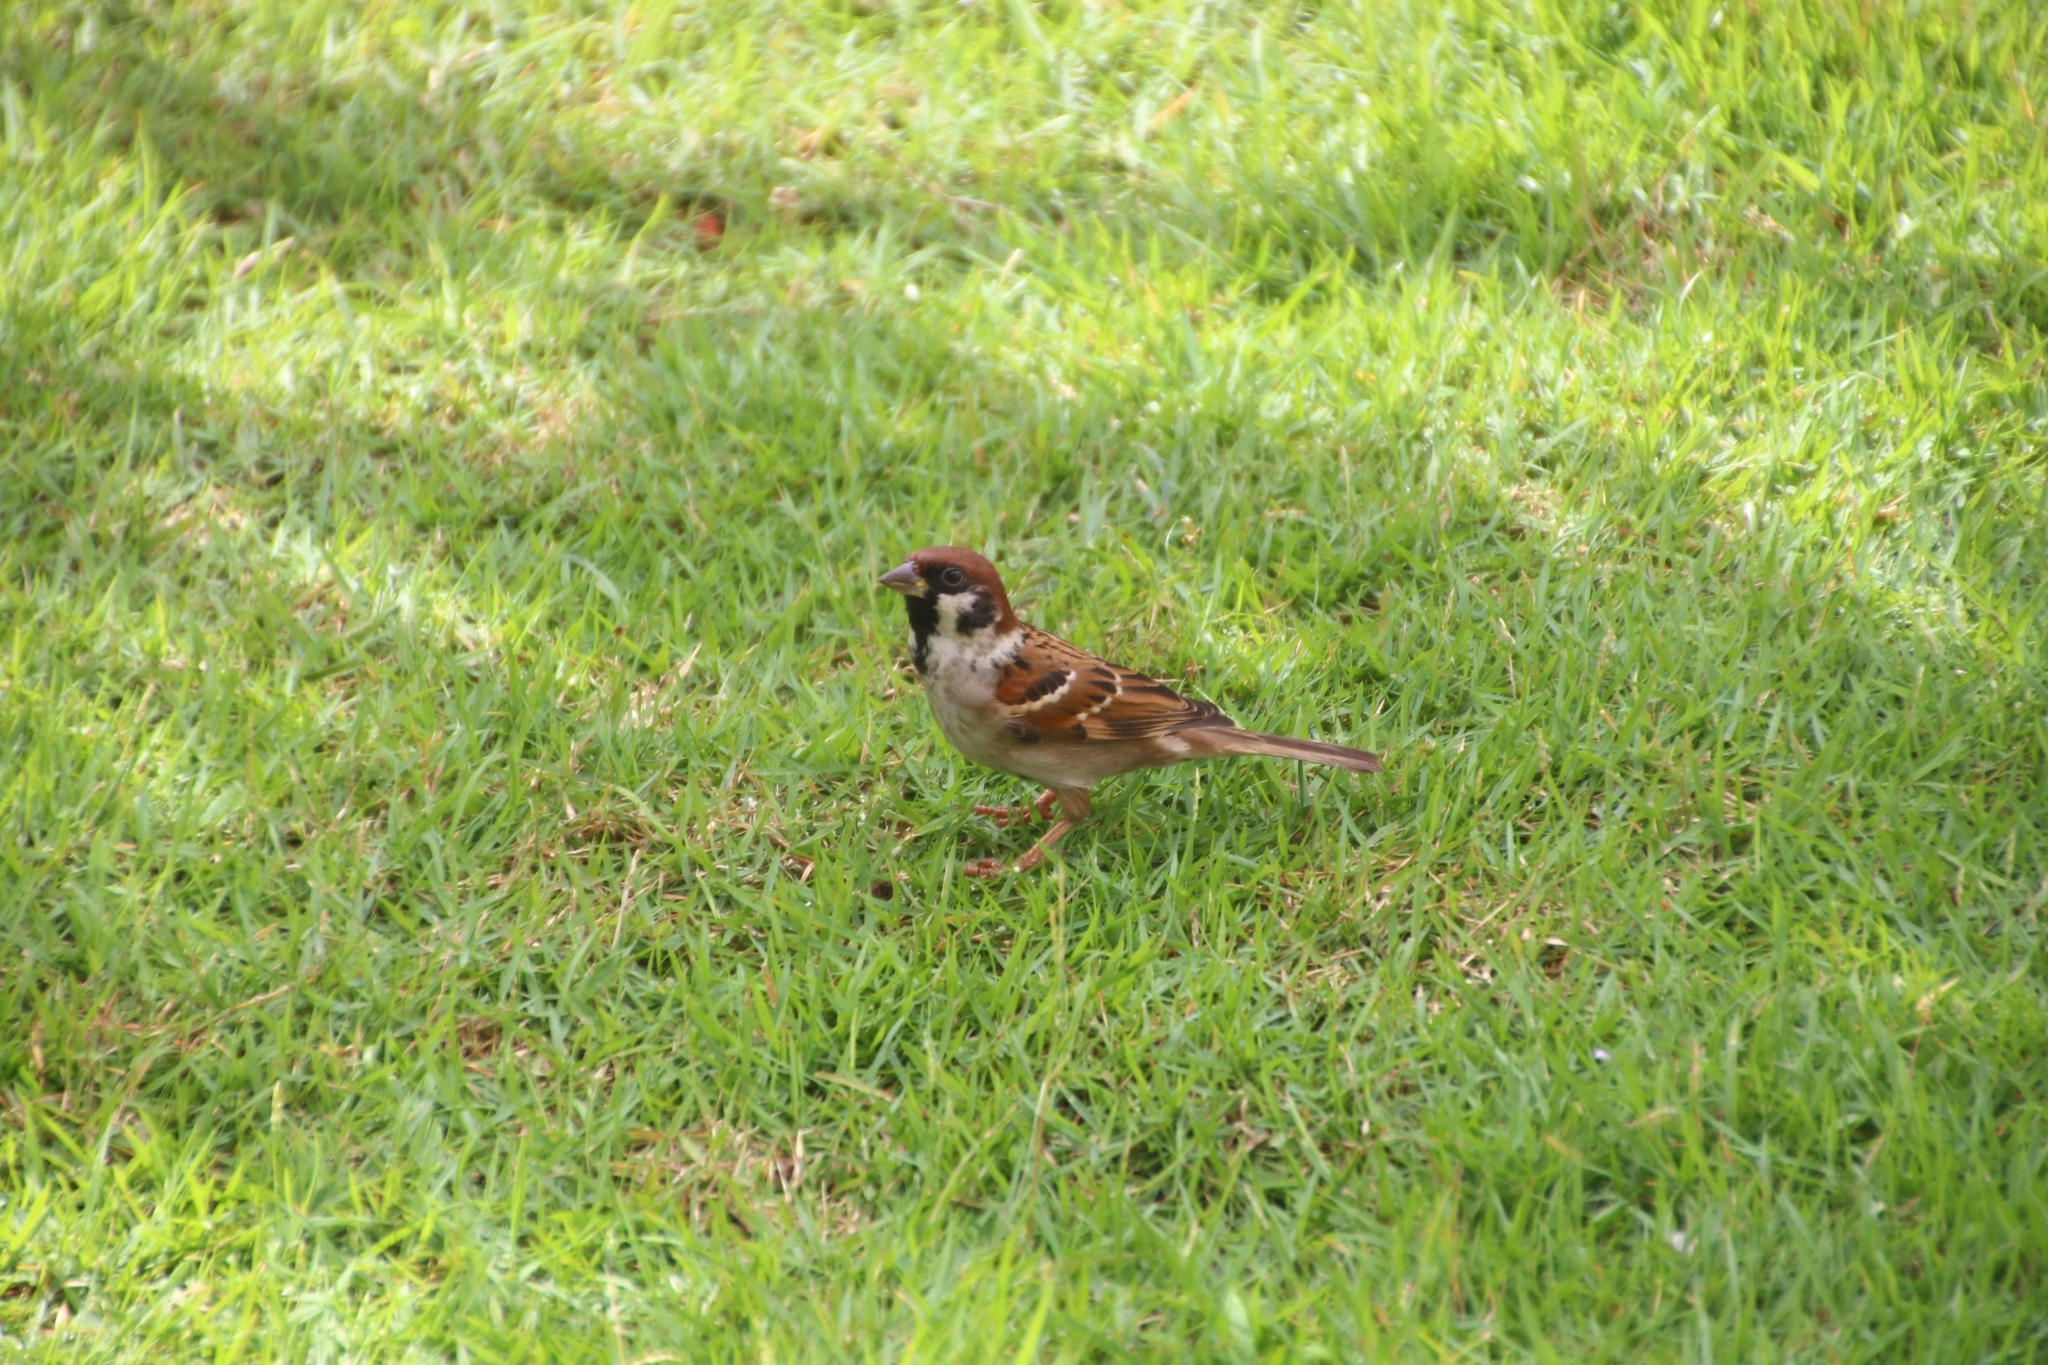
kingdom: Animalia
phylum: Chordata
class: Aves
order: Passeriformes
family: Passeridae
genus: Passer
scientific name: Passer montanus
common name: Eurasian tree sparrow
